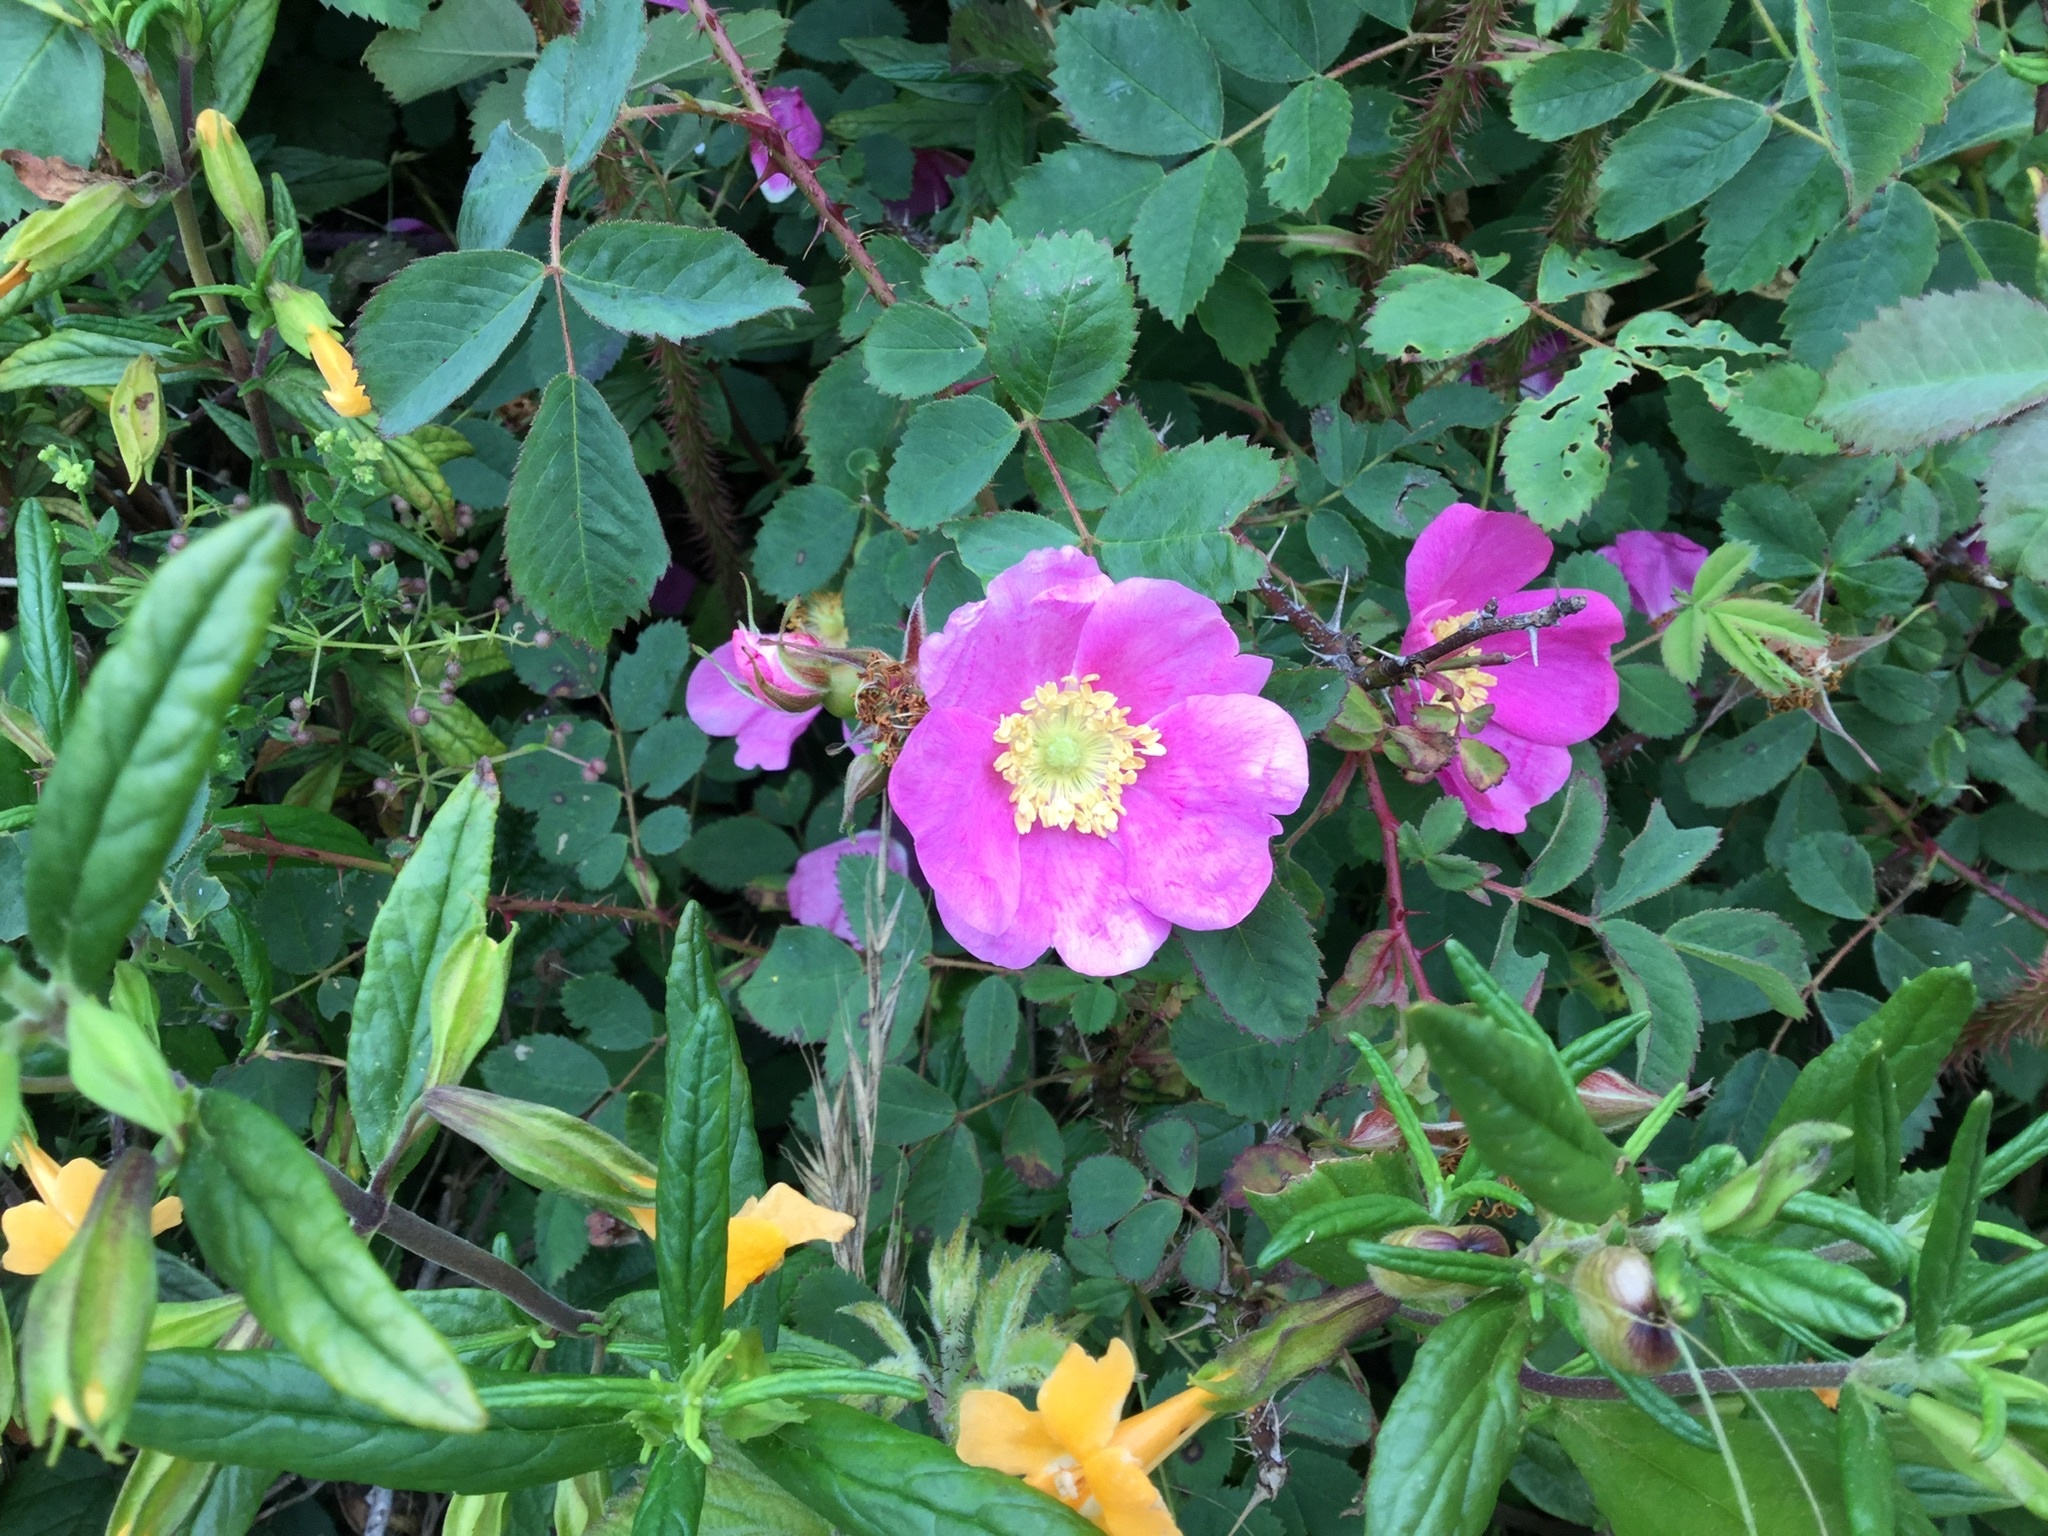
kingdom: Plantae
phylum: Tracheophyta
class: Magnoliopsida
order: Rosales
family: Rosaceae
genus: Rosa
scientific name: Rosa californica
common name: California rose
